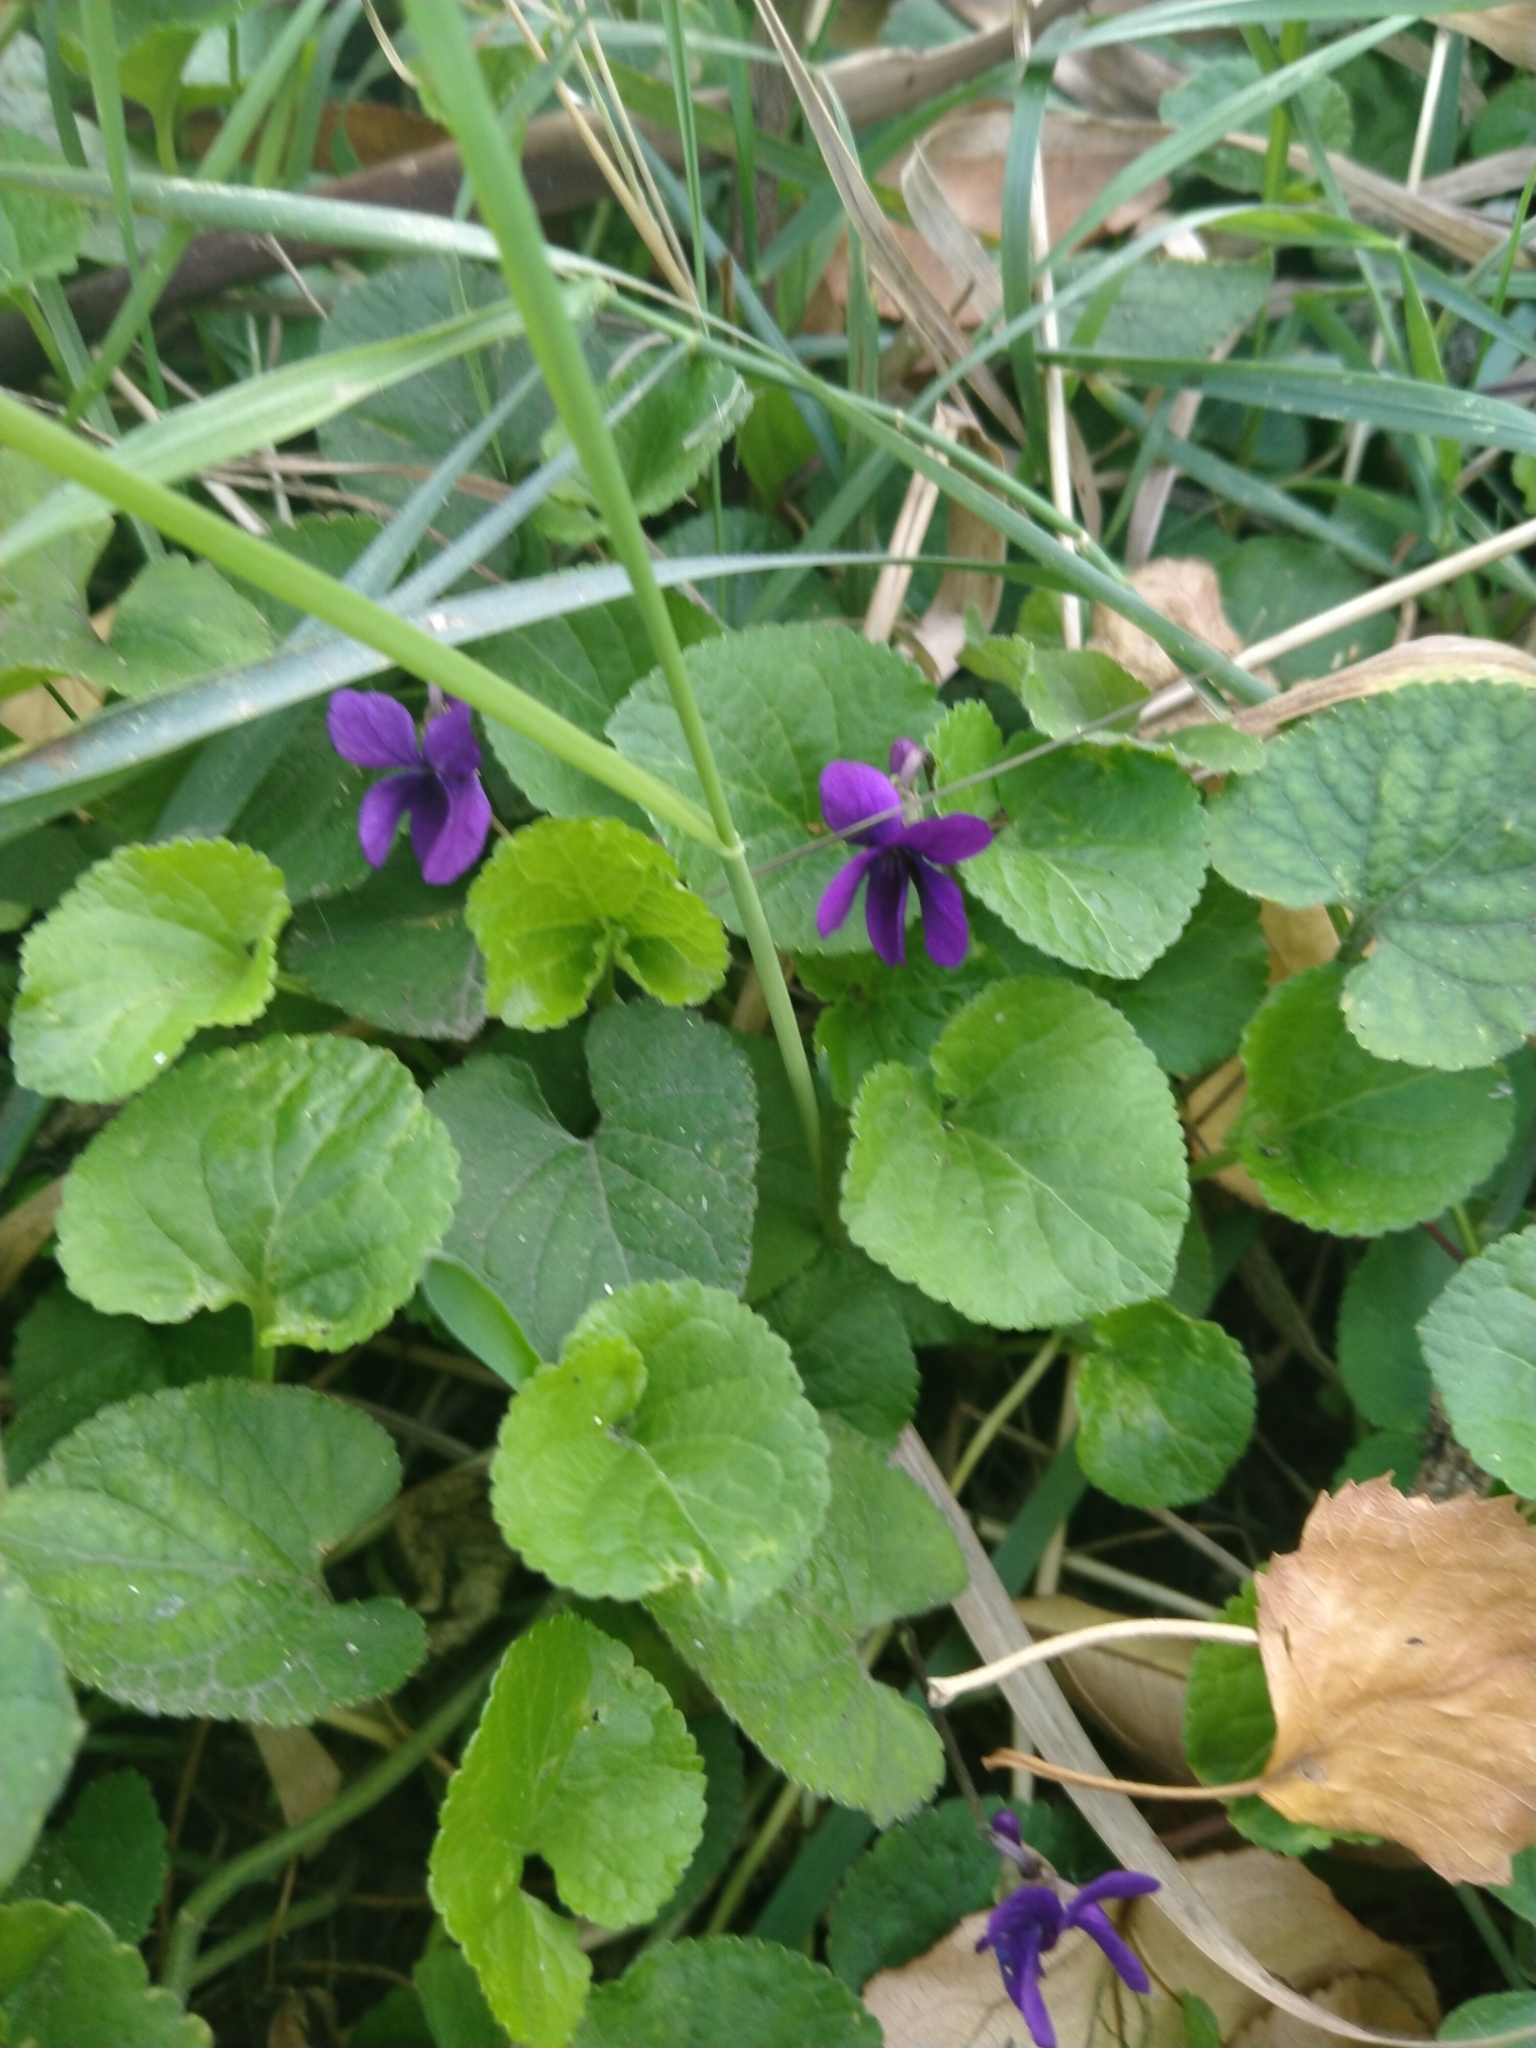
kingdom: Plantae
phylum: Tracheophyta
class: Magnoliopsida
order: Malpighiales
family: Violaceae
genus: Viola
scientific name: Viola odorata
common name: Sweet violet
